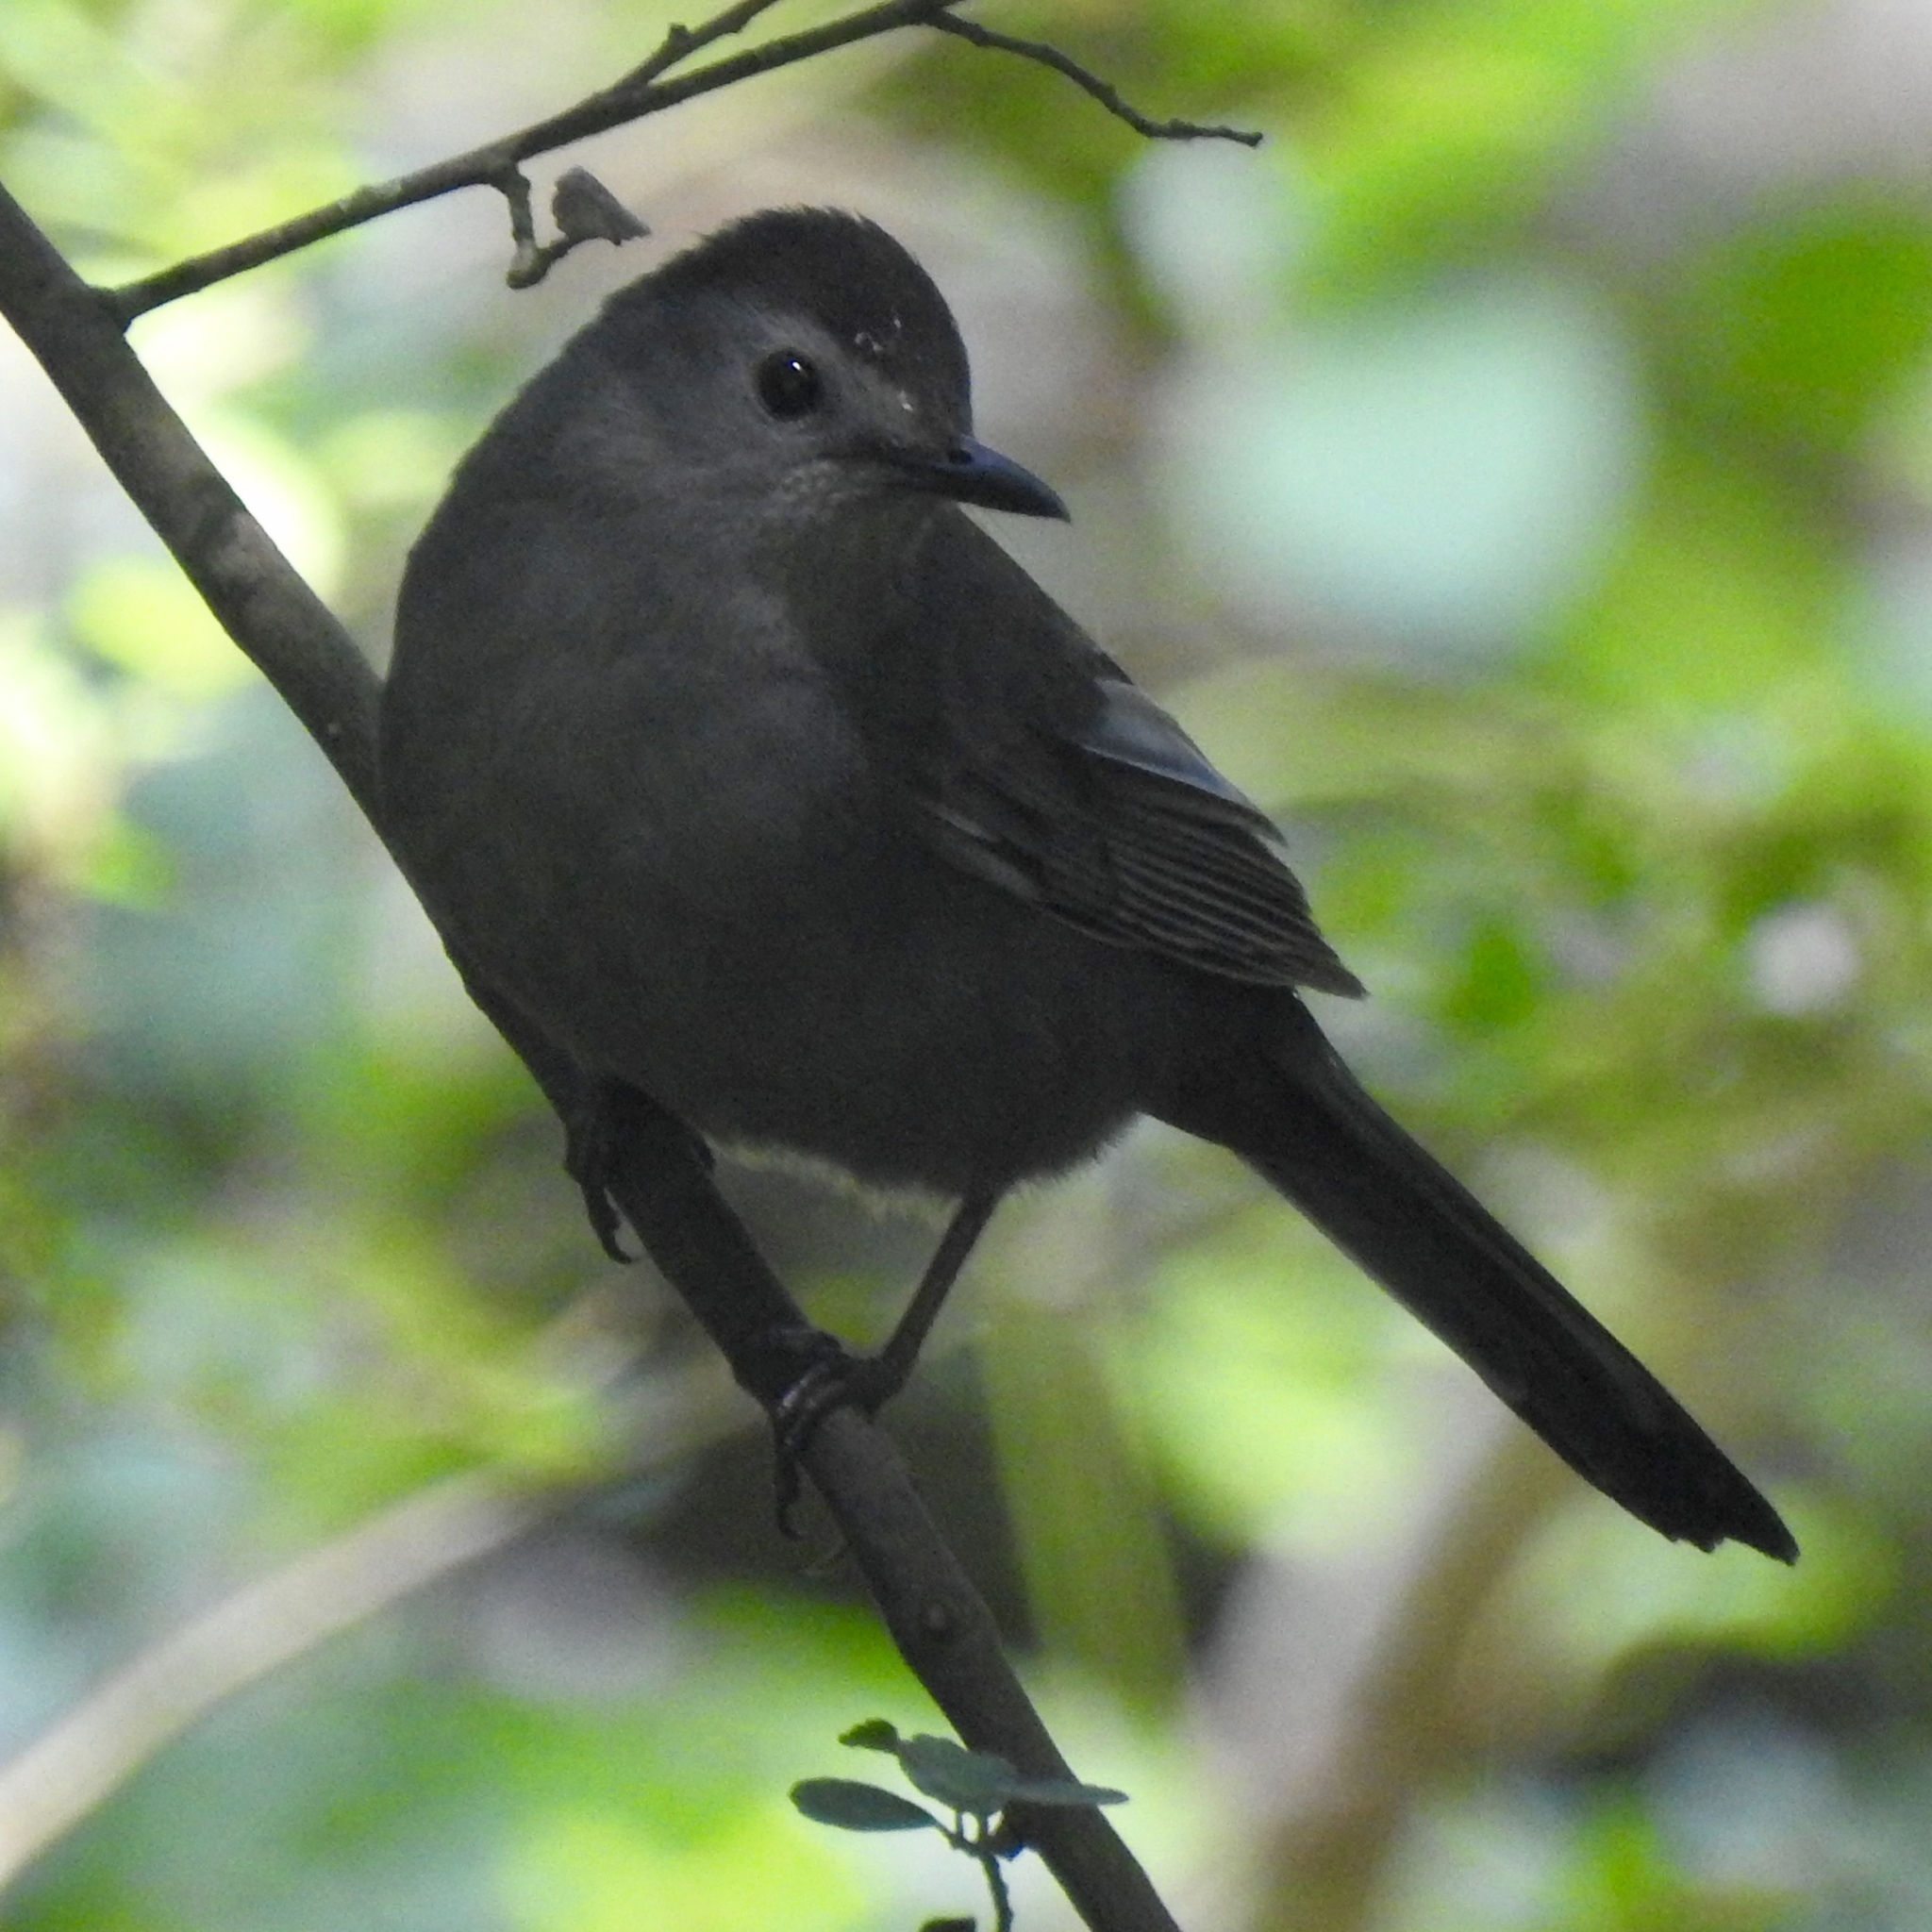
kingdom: Animalia
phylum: Chordata
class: Aves
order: Passeriformes
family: Mimidae
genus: Dumetella
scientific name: Dumetella carolinensis
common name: Gray catbird
